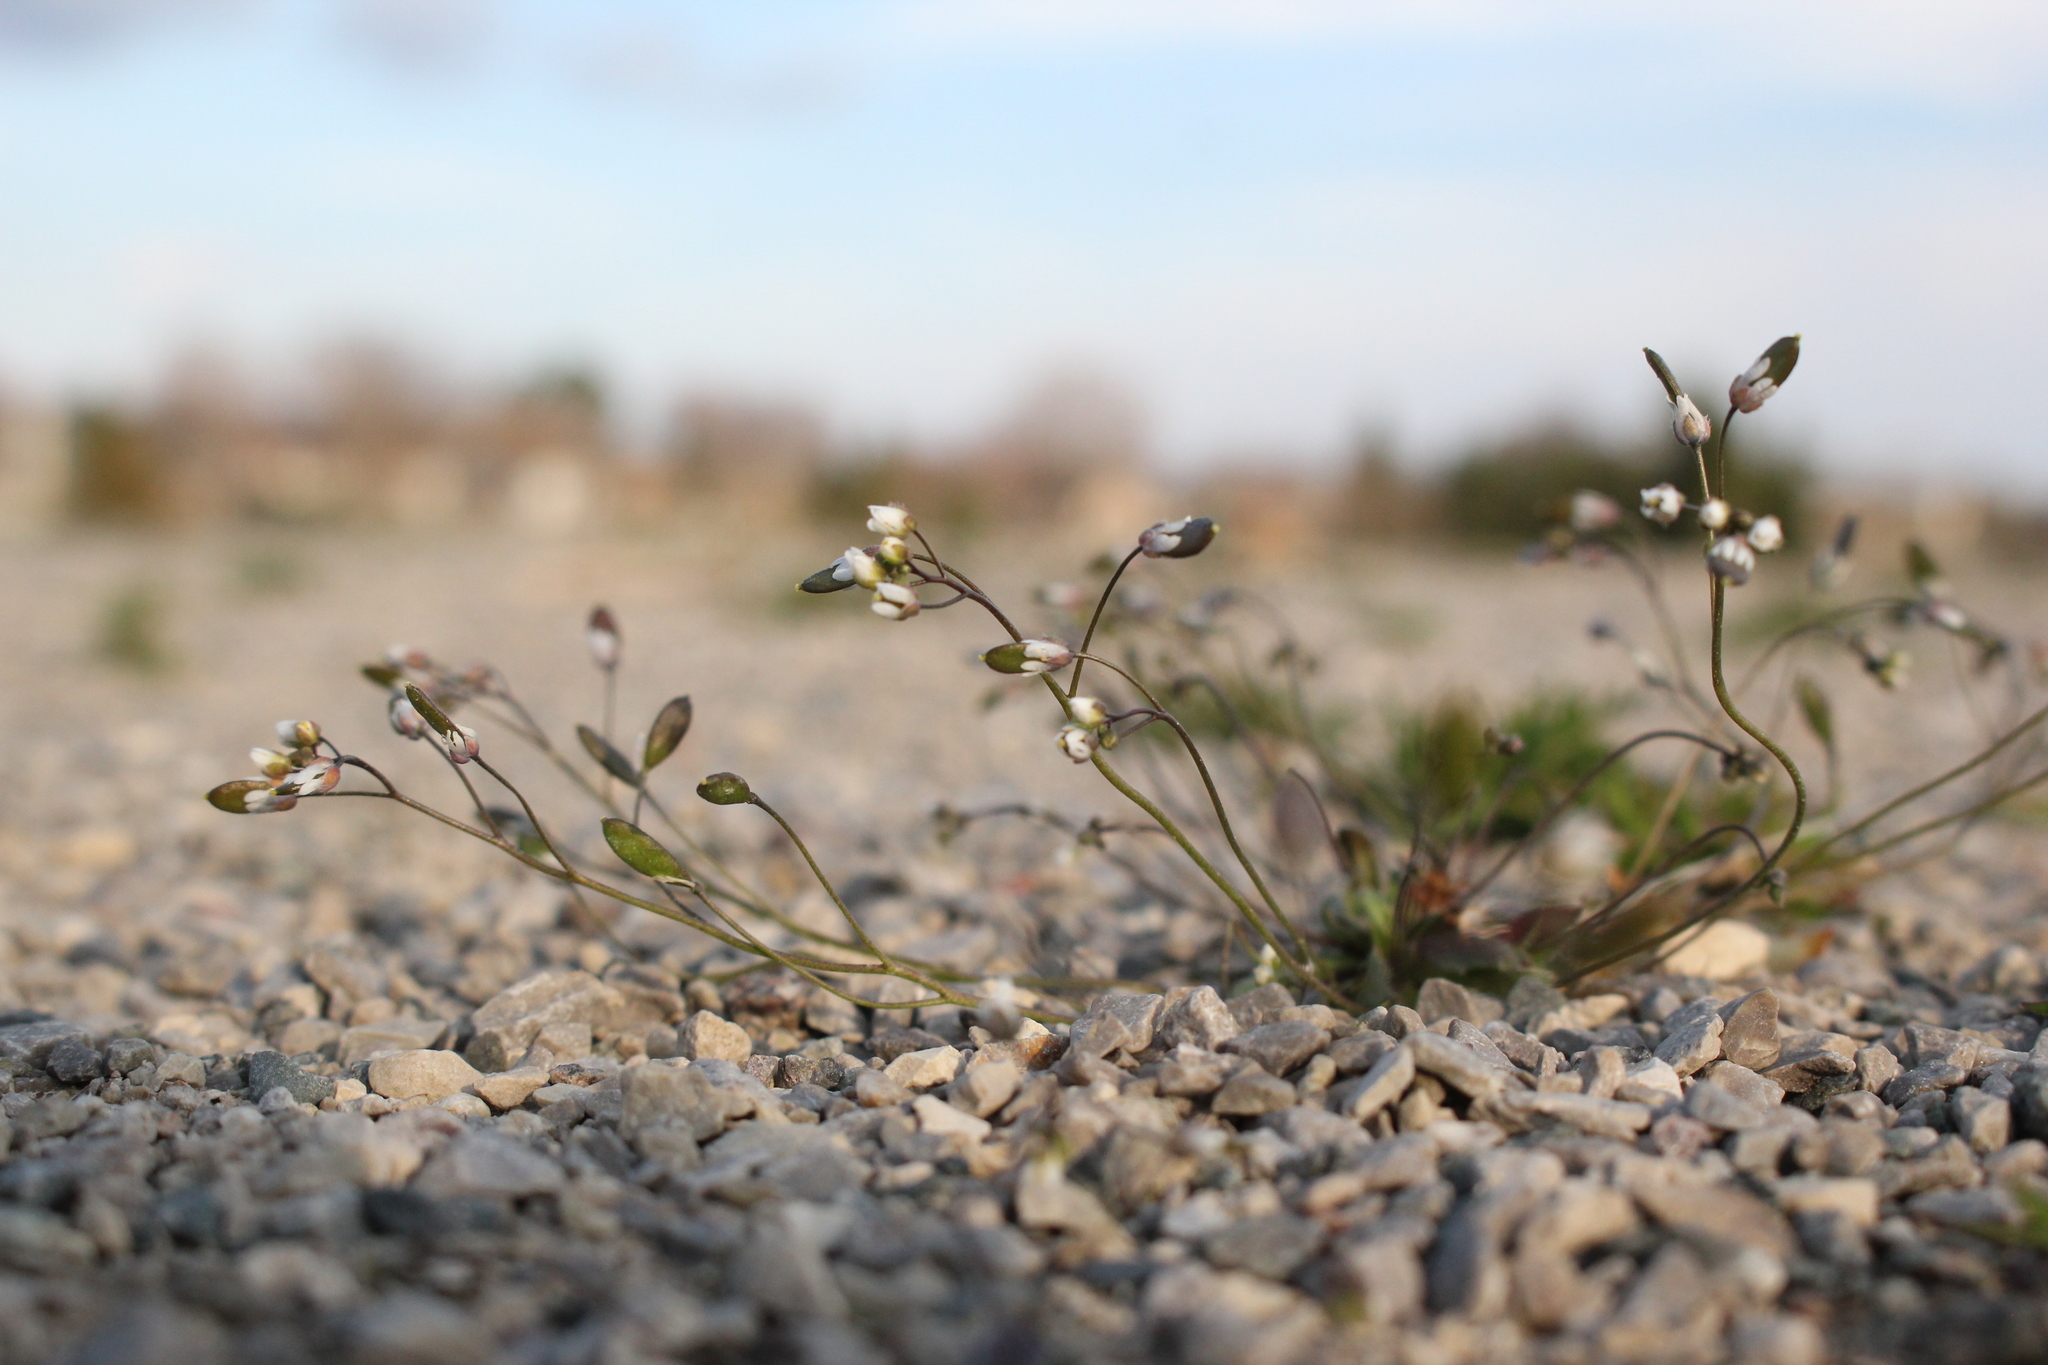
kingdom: Plantae
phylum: Tracheophyta
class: Magnoliopsida
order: Brassicales
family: Brassicaceae
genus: Draba
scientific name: Draba verna
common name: Spring draba
